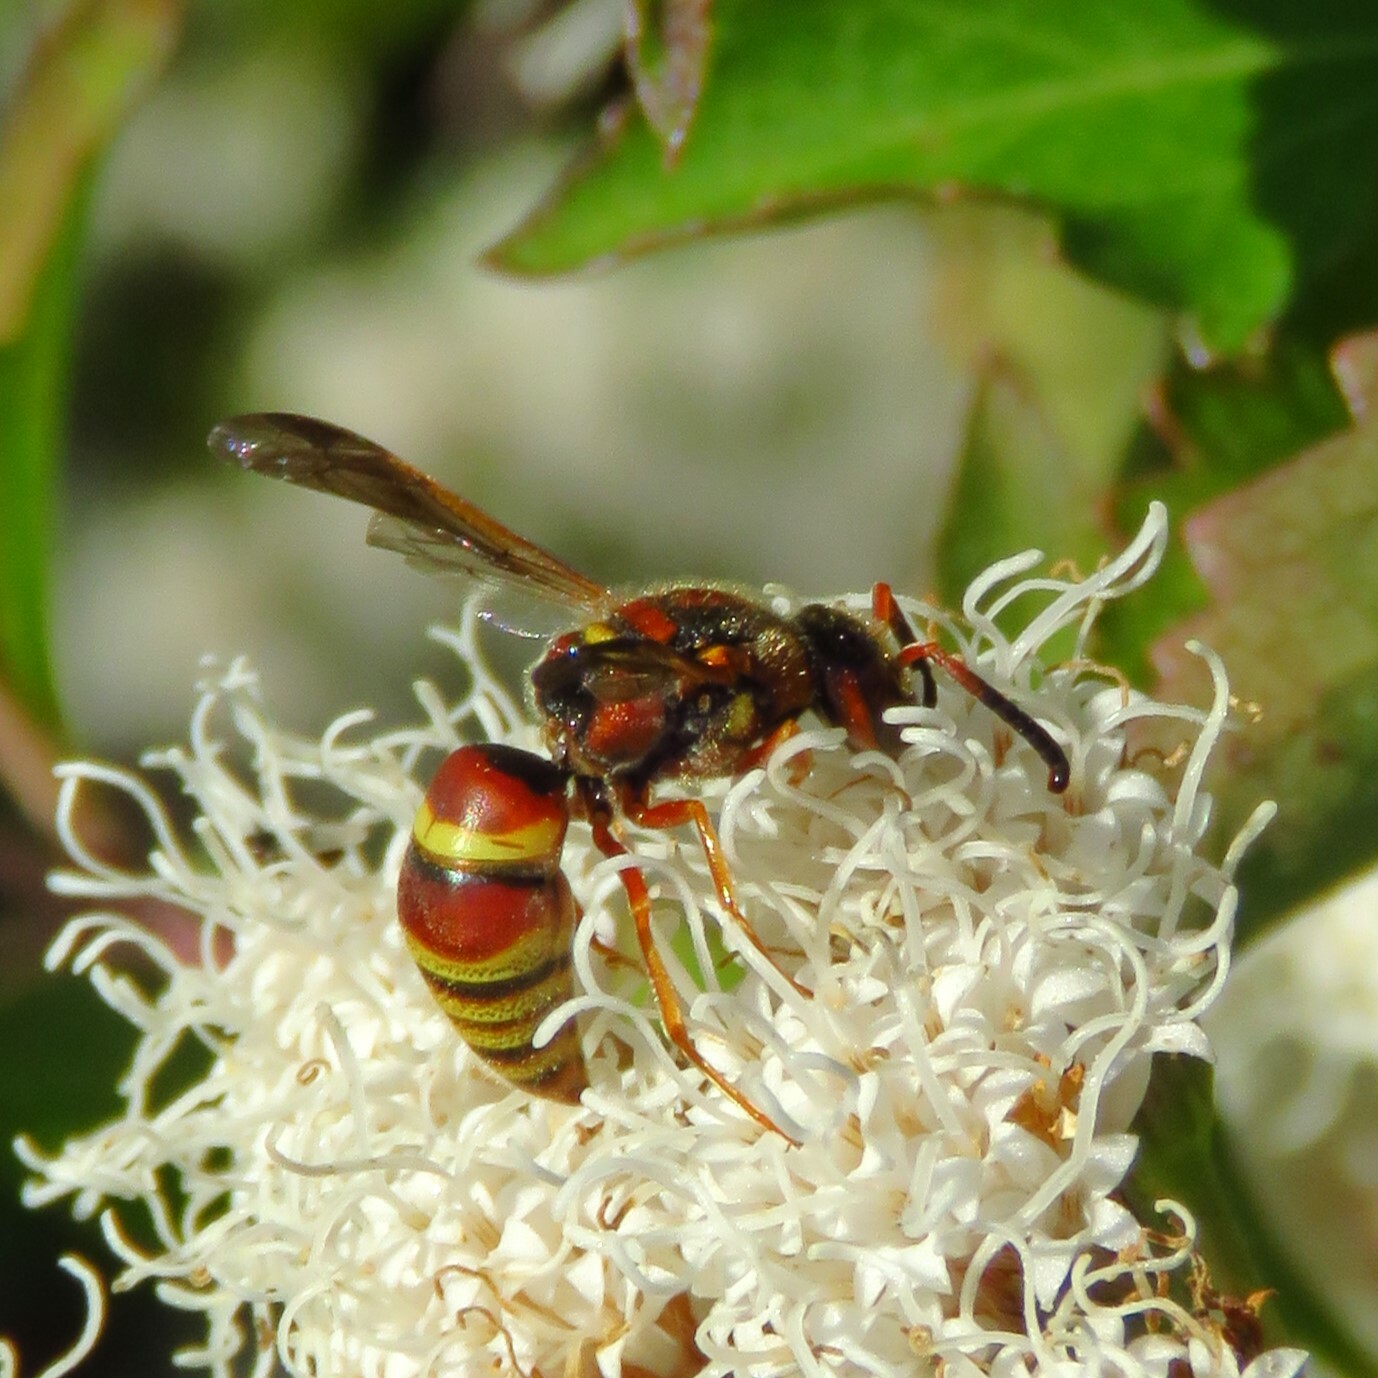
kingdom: Animalia
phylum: Arthropoda
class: Insecta
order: Hymenoptera
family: Eumenidae
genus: Euodynerus
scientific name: Euodynerus pratensis
